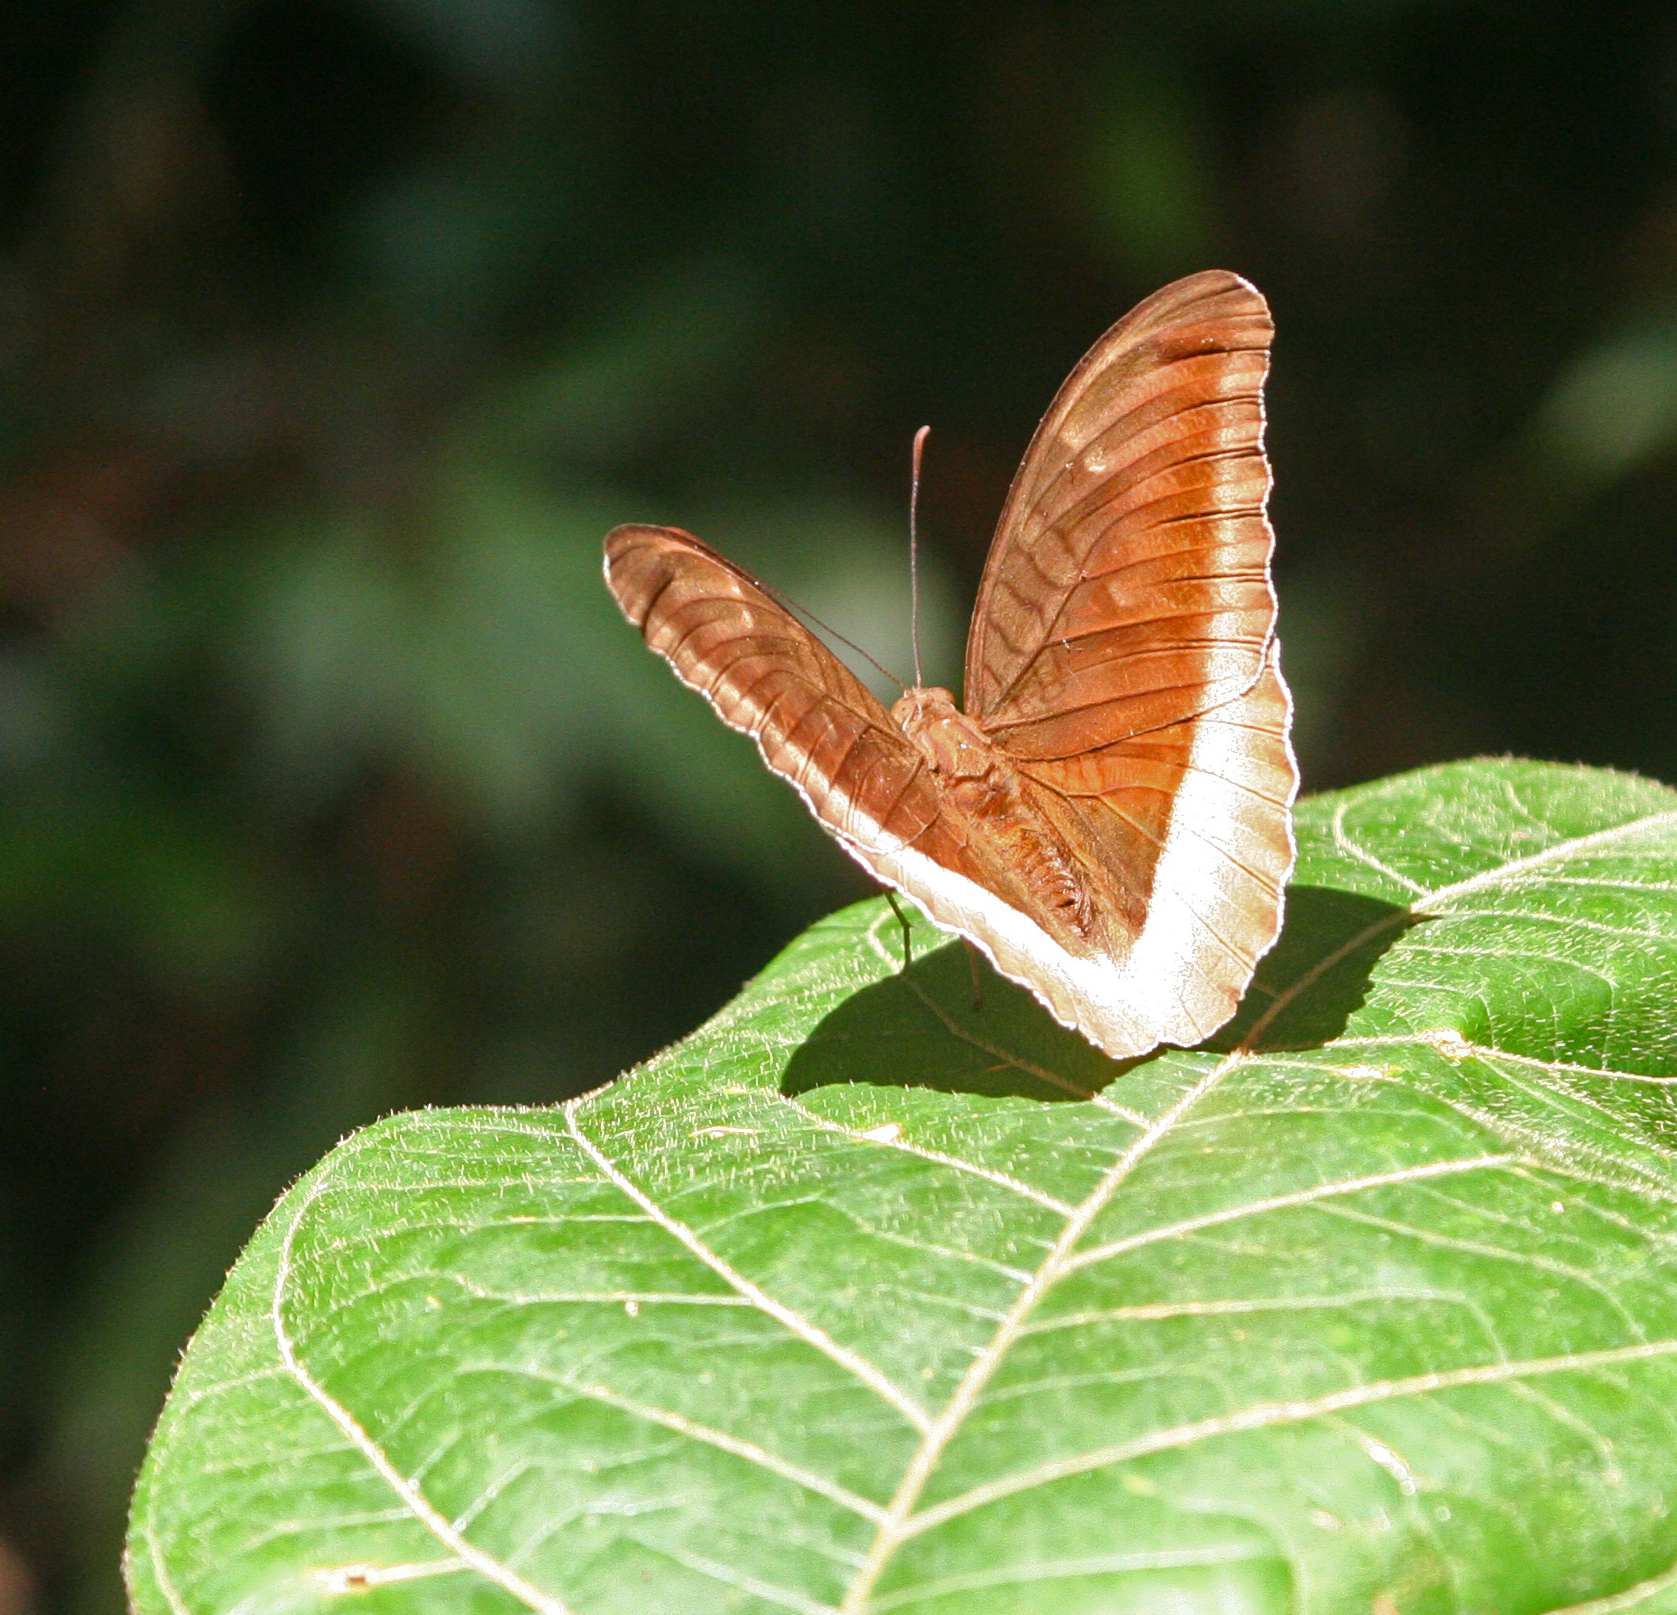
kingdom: Animalia
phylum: Arthropoda
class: Insecta
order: Lepidoptera
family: Nymphalidae
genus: Tanaecia
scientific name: Tanaecia lepidea
